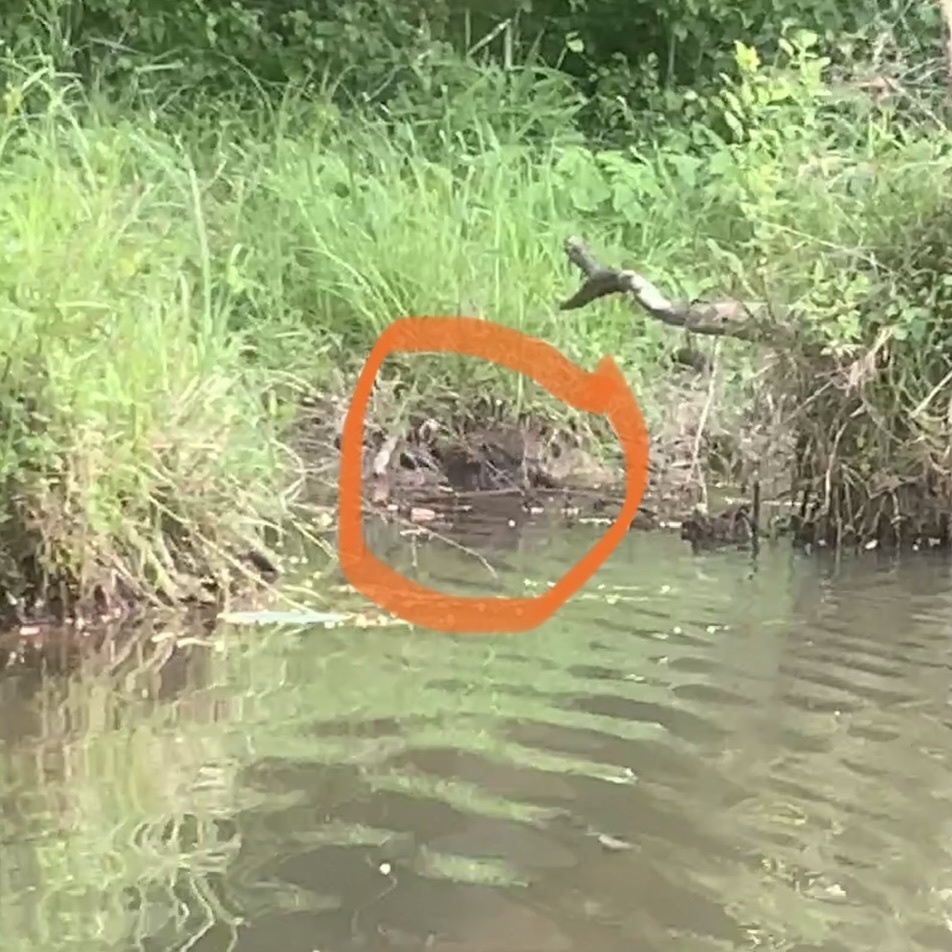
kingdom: Animalia
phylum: Chordata
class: Mammalia
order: Carnivora
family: Procyonidae
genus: Procyon
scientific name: Procyon lotor
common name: Raccoon
